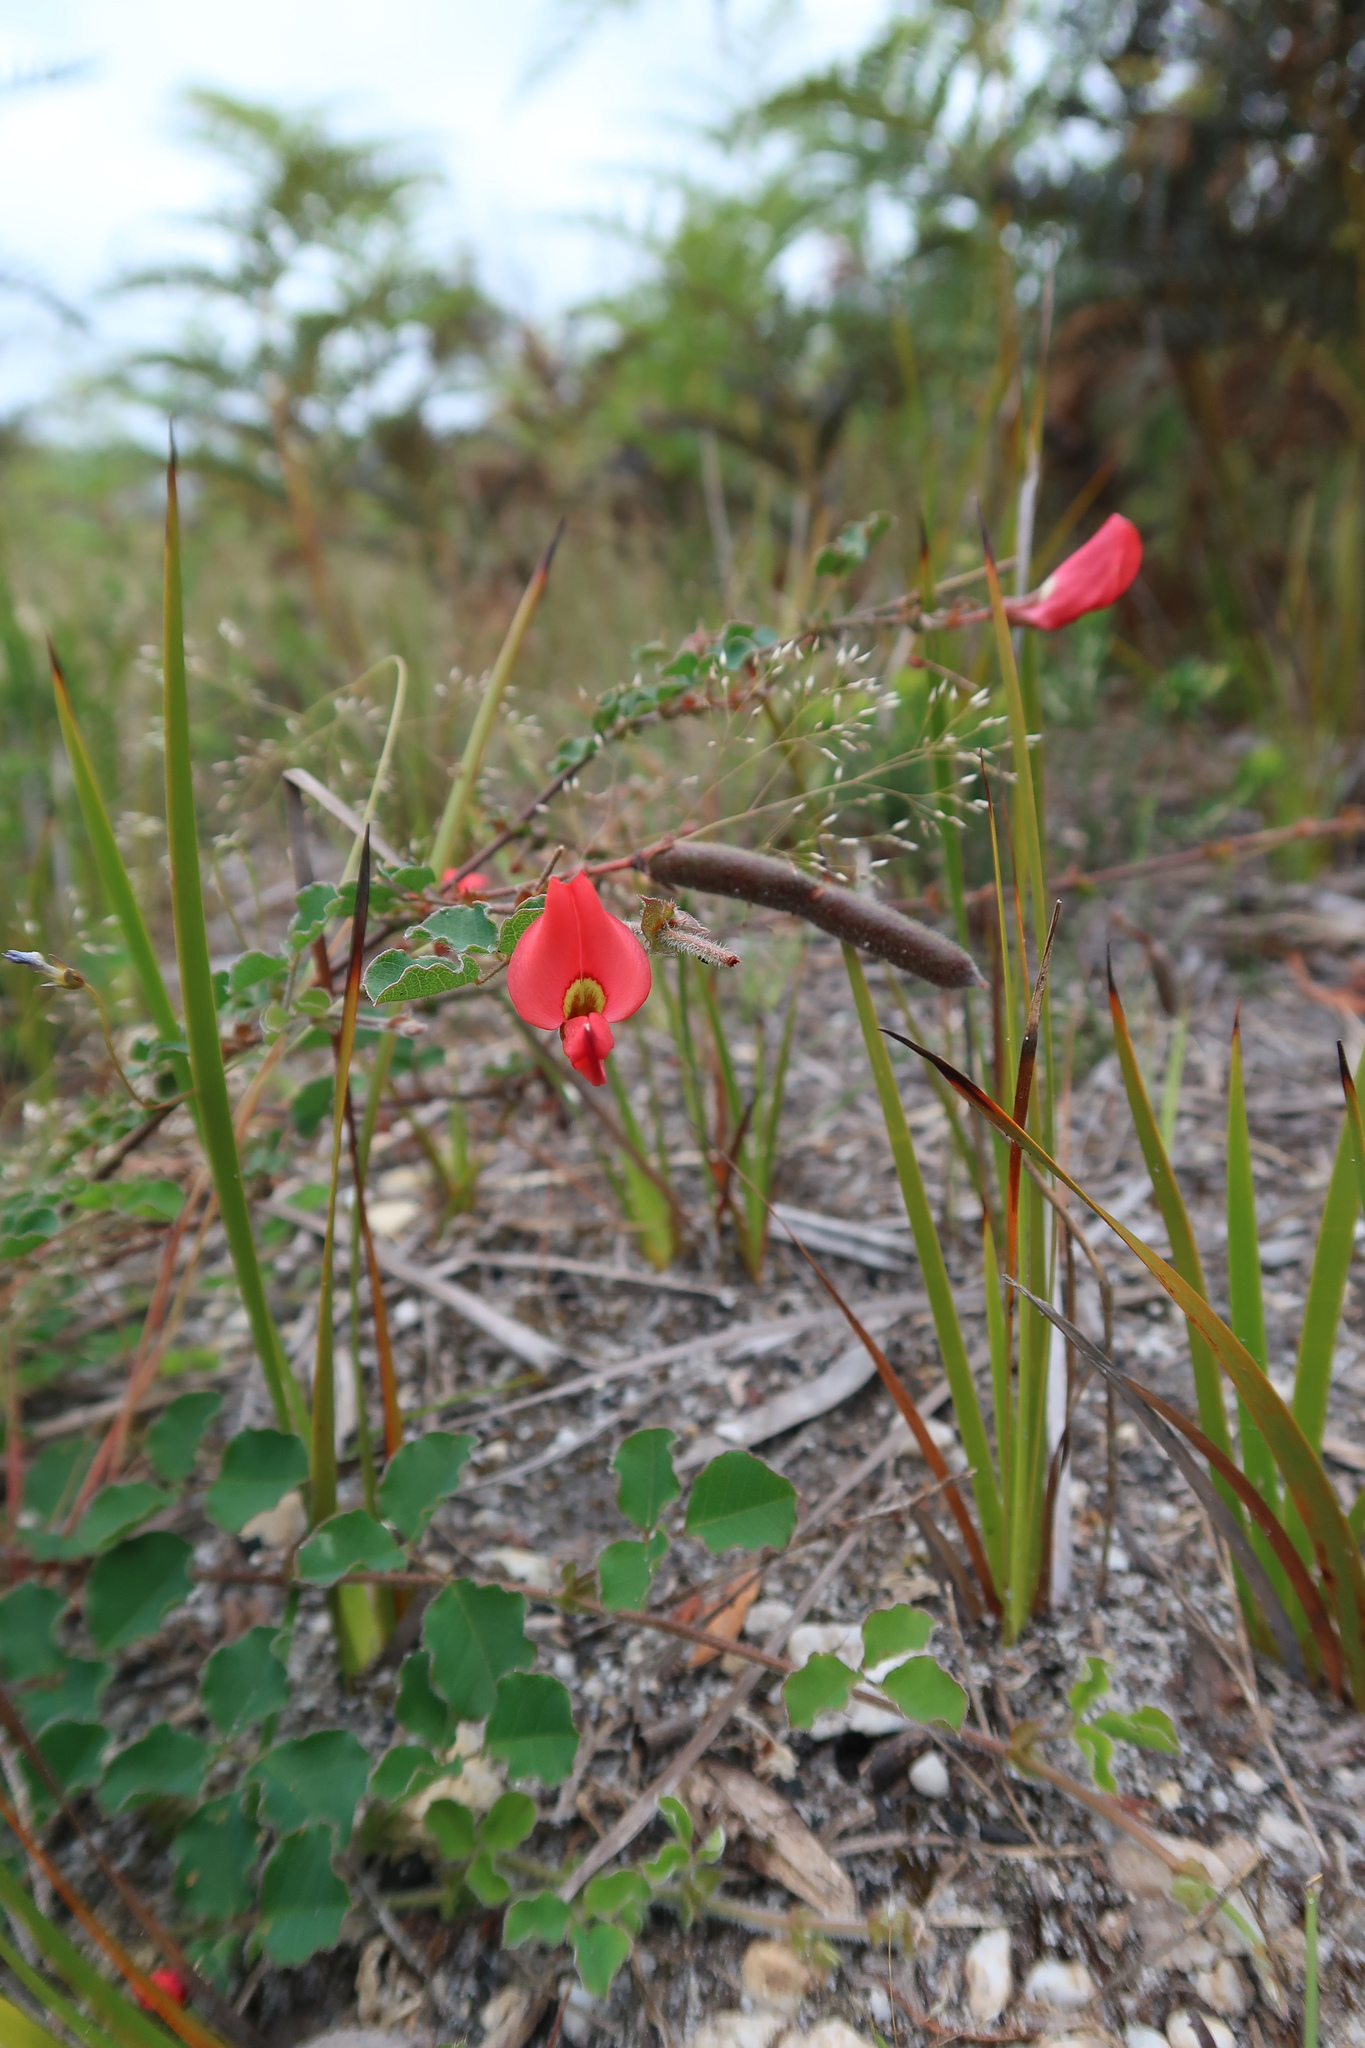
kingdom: Plantae
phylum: Tracheophyta
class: Magnoliopsida
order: Fabales
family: Fabaceae
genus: Kennedia
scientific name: Kennedia prostrata
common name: Running-postman
